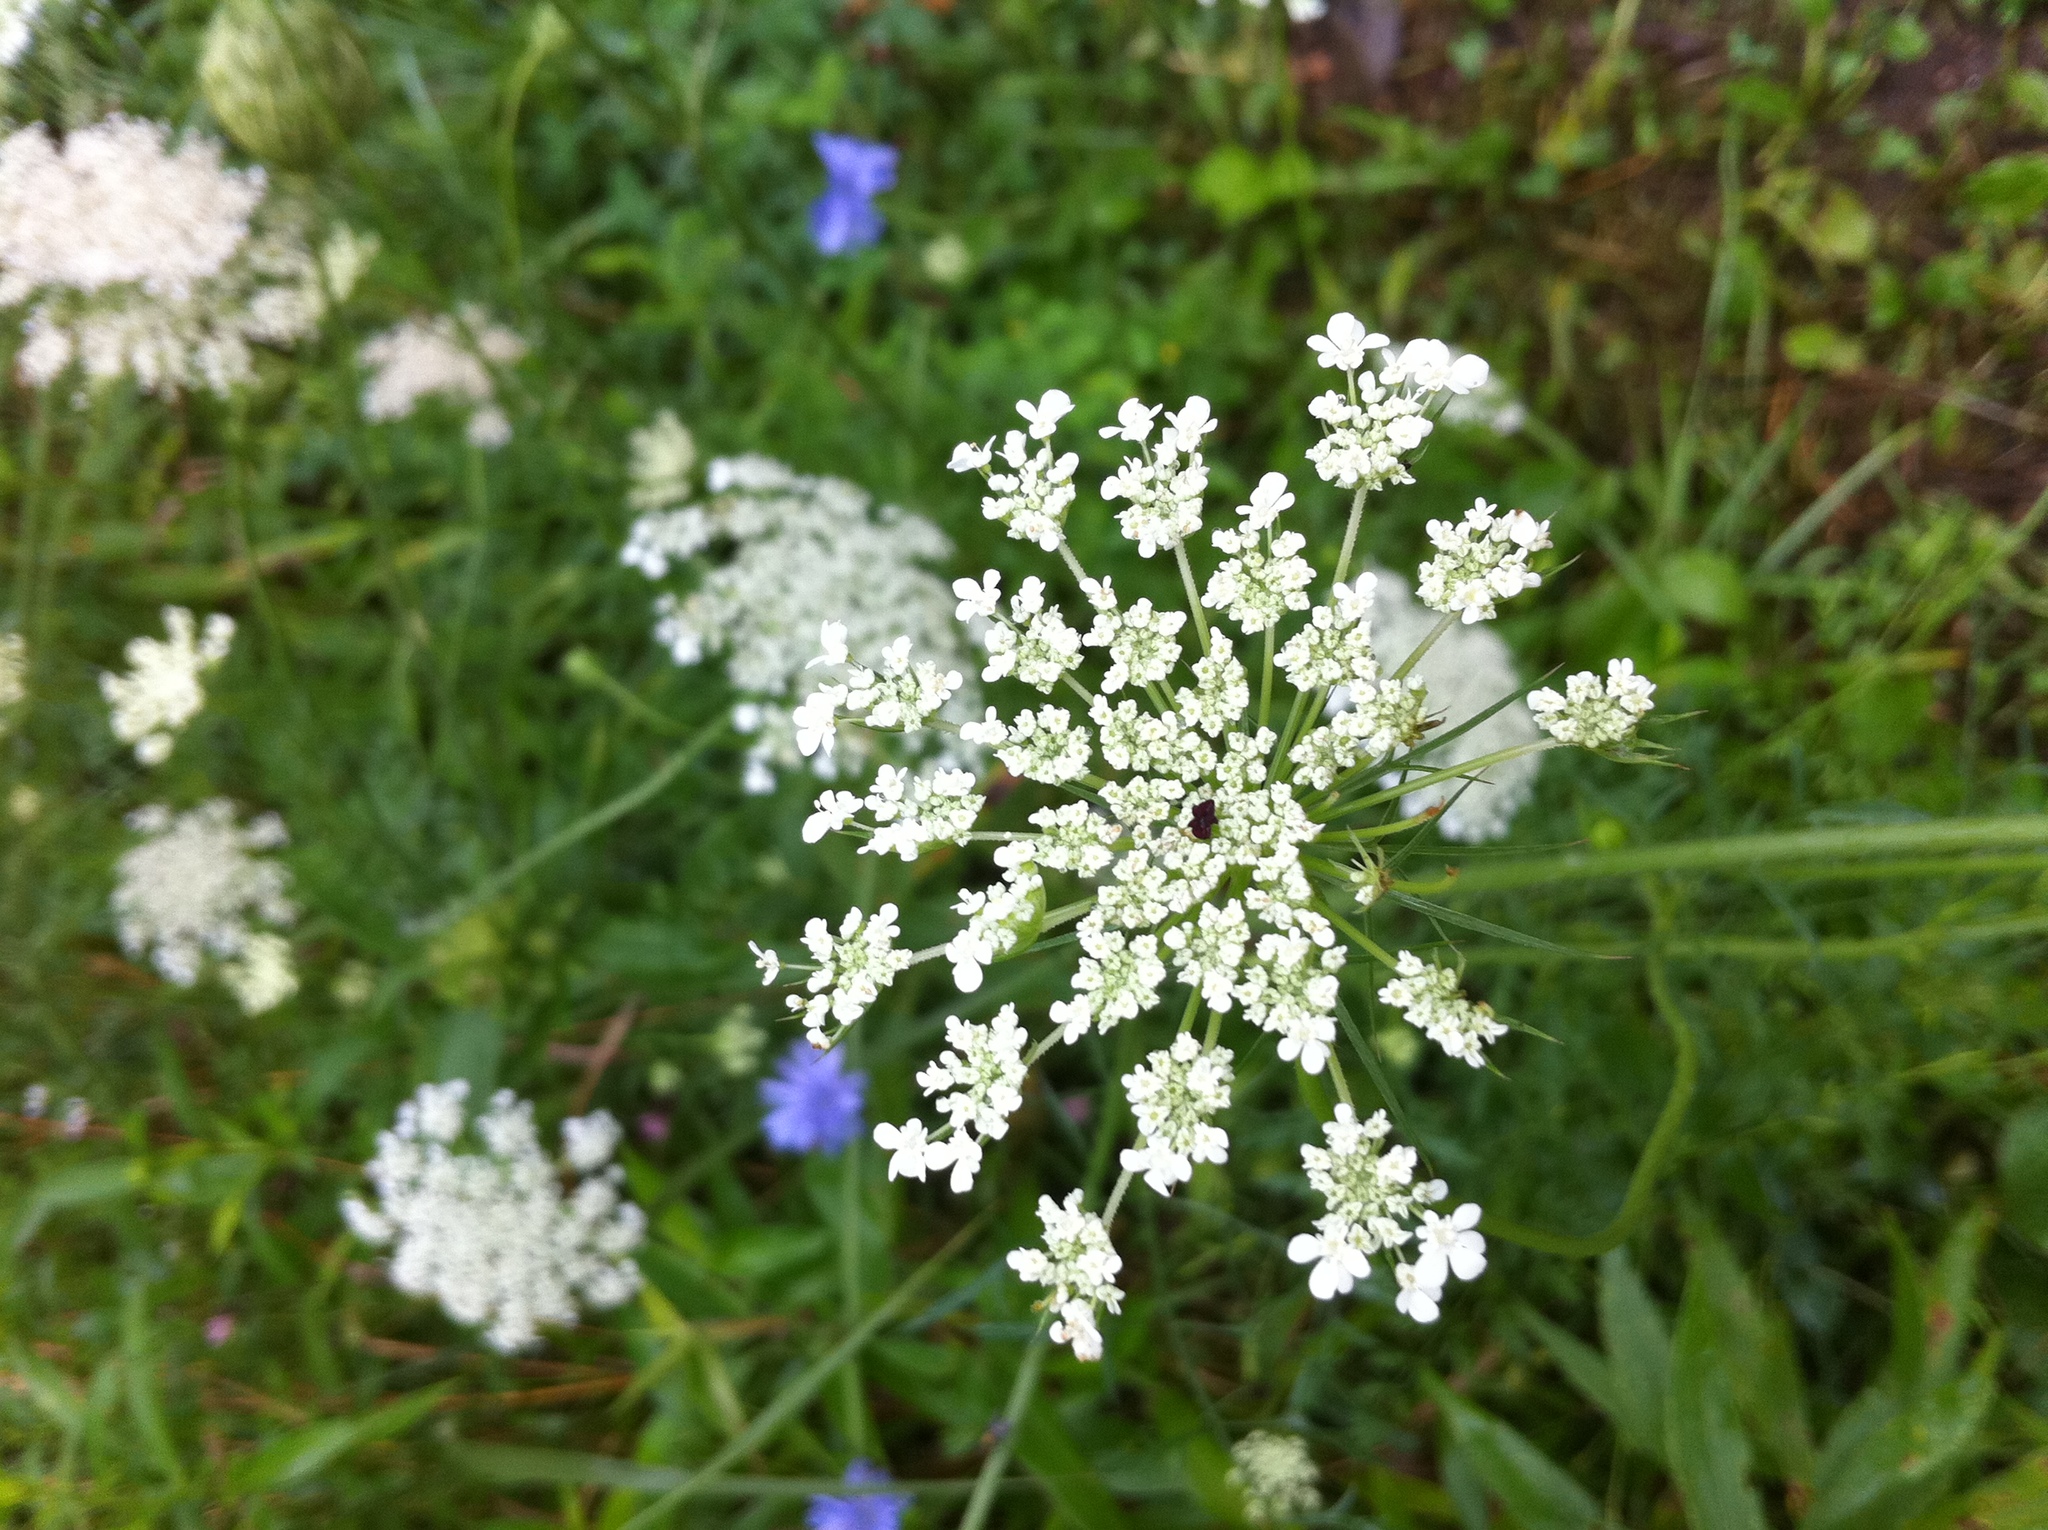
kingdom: Plantae
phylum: Tracheophyta
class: Magnoliopsida
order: Apiales
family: Apiaceae
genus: Daucus
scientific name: Daucus carota
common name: Wild carrot
